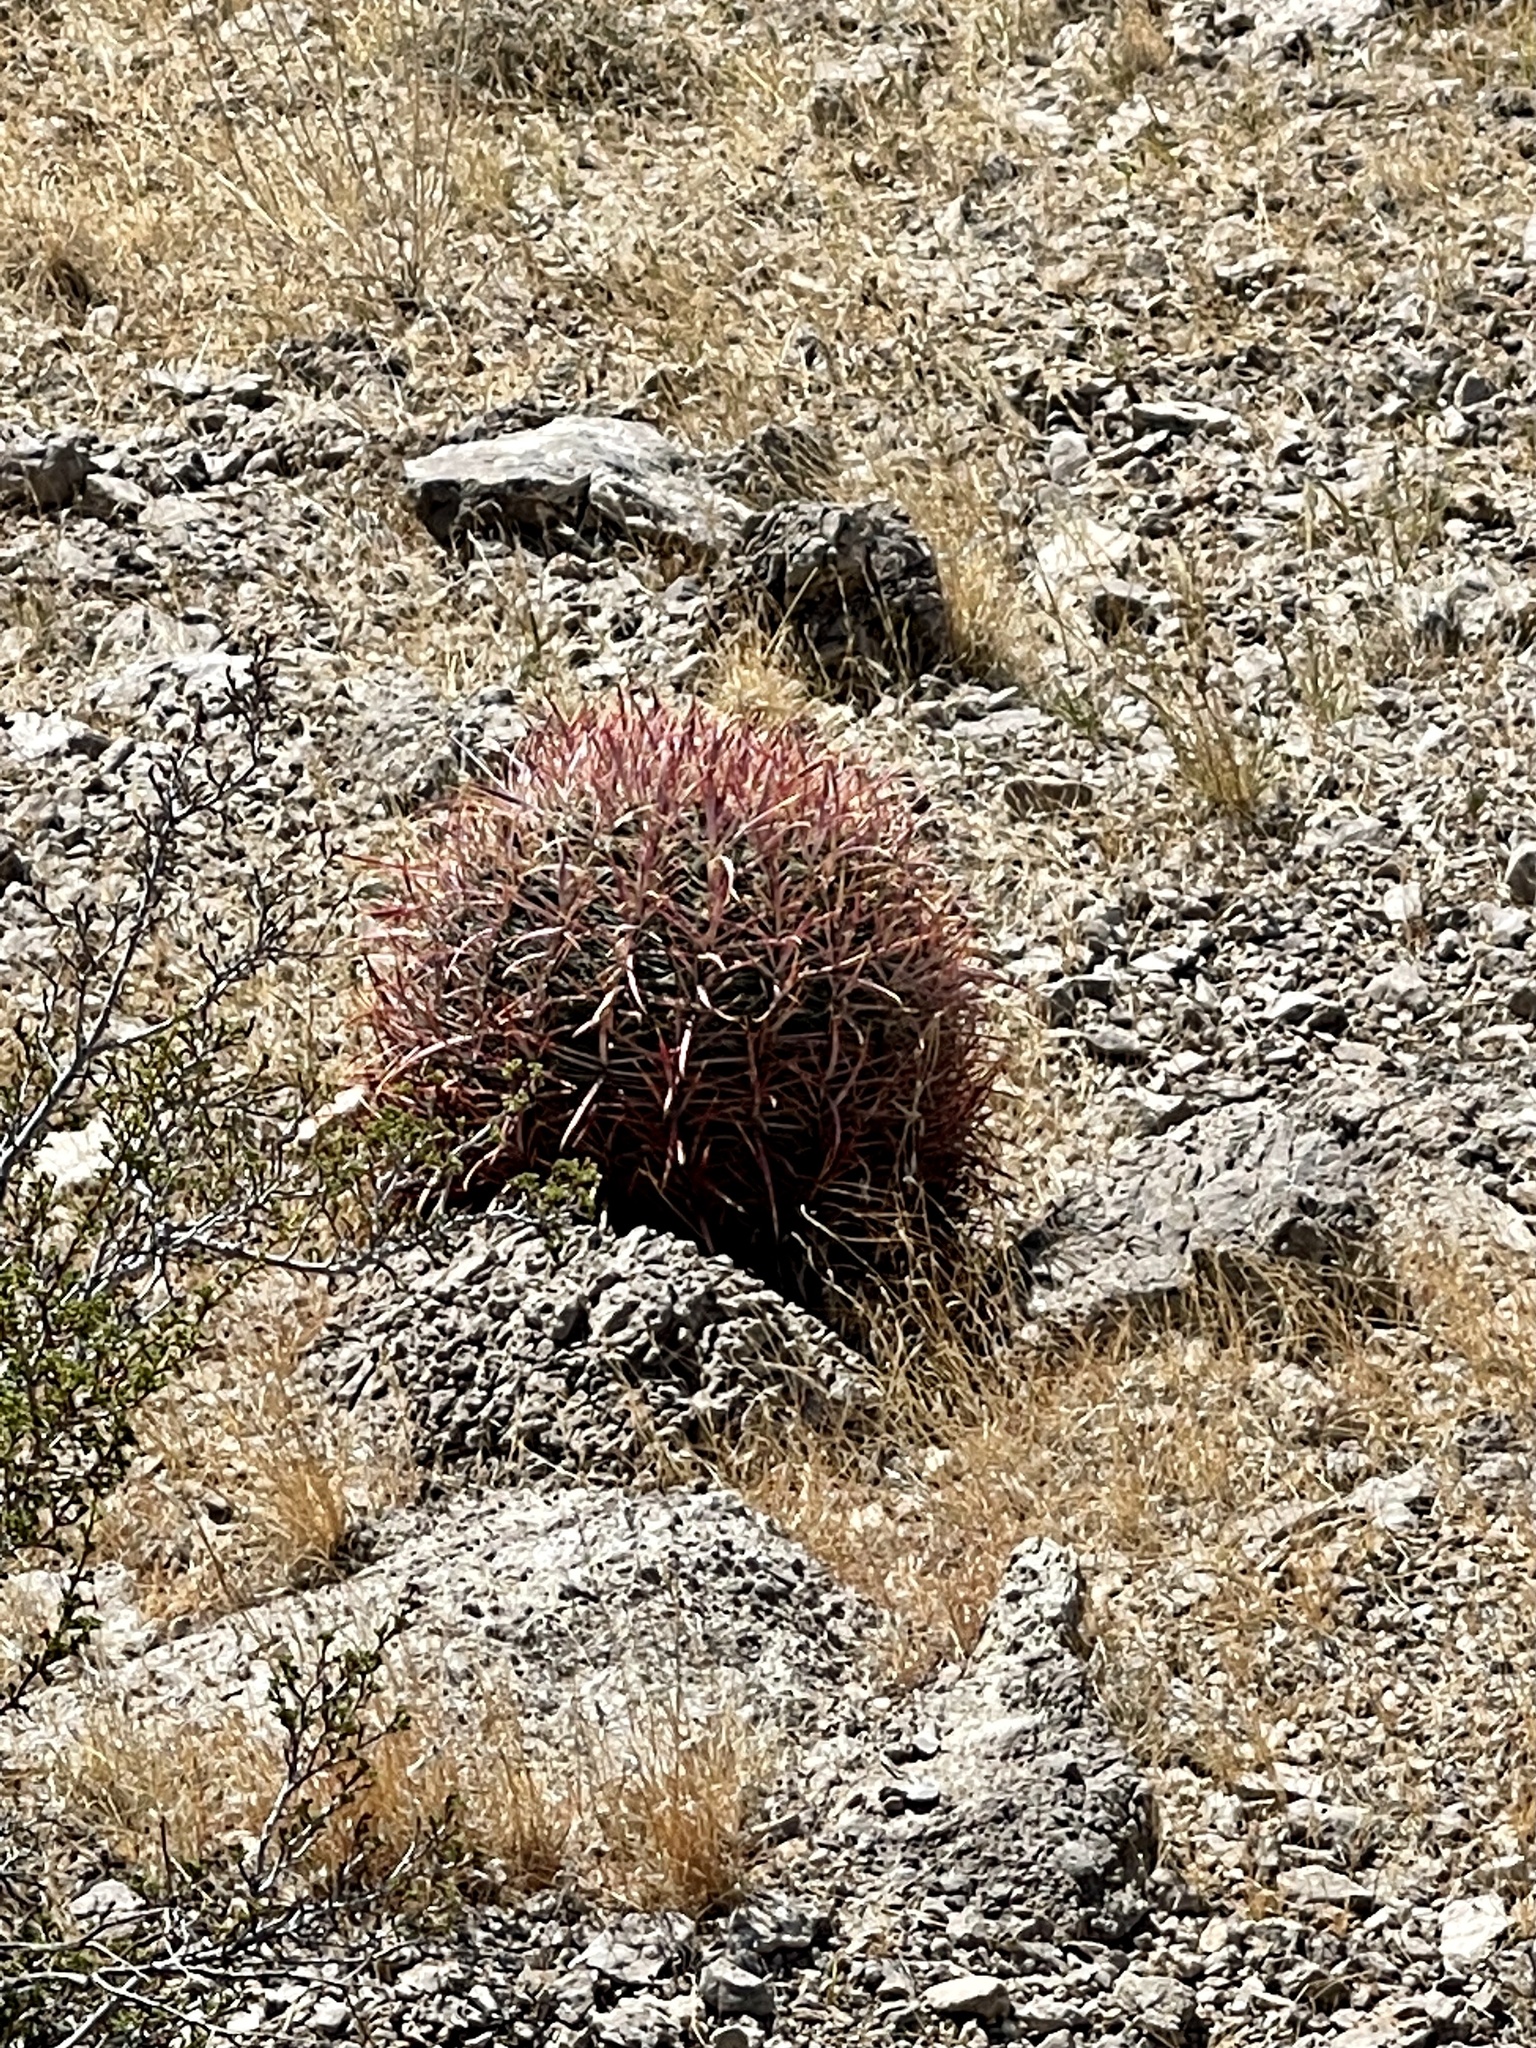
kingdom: Plantae
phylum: Tracheophyta
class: Magnoliopsida
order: Caryophyllales
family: Cactaceae
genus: Ferocactus
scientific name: Ferocactus cylindraceus
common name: California barrel cactus
